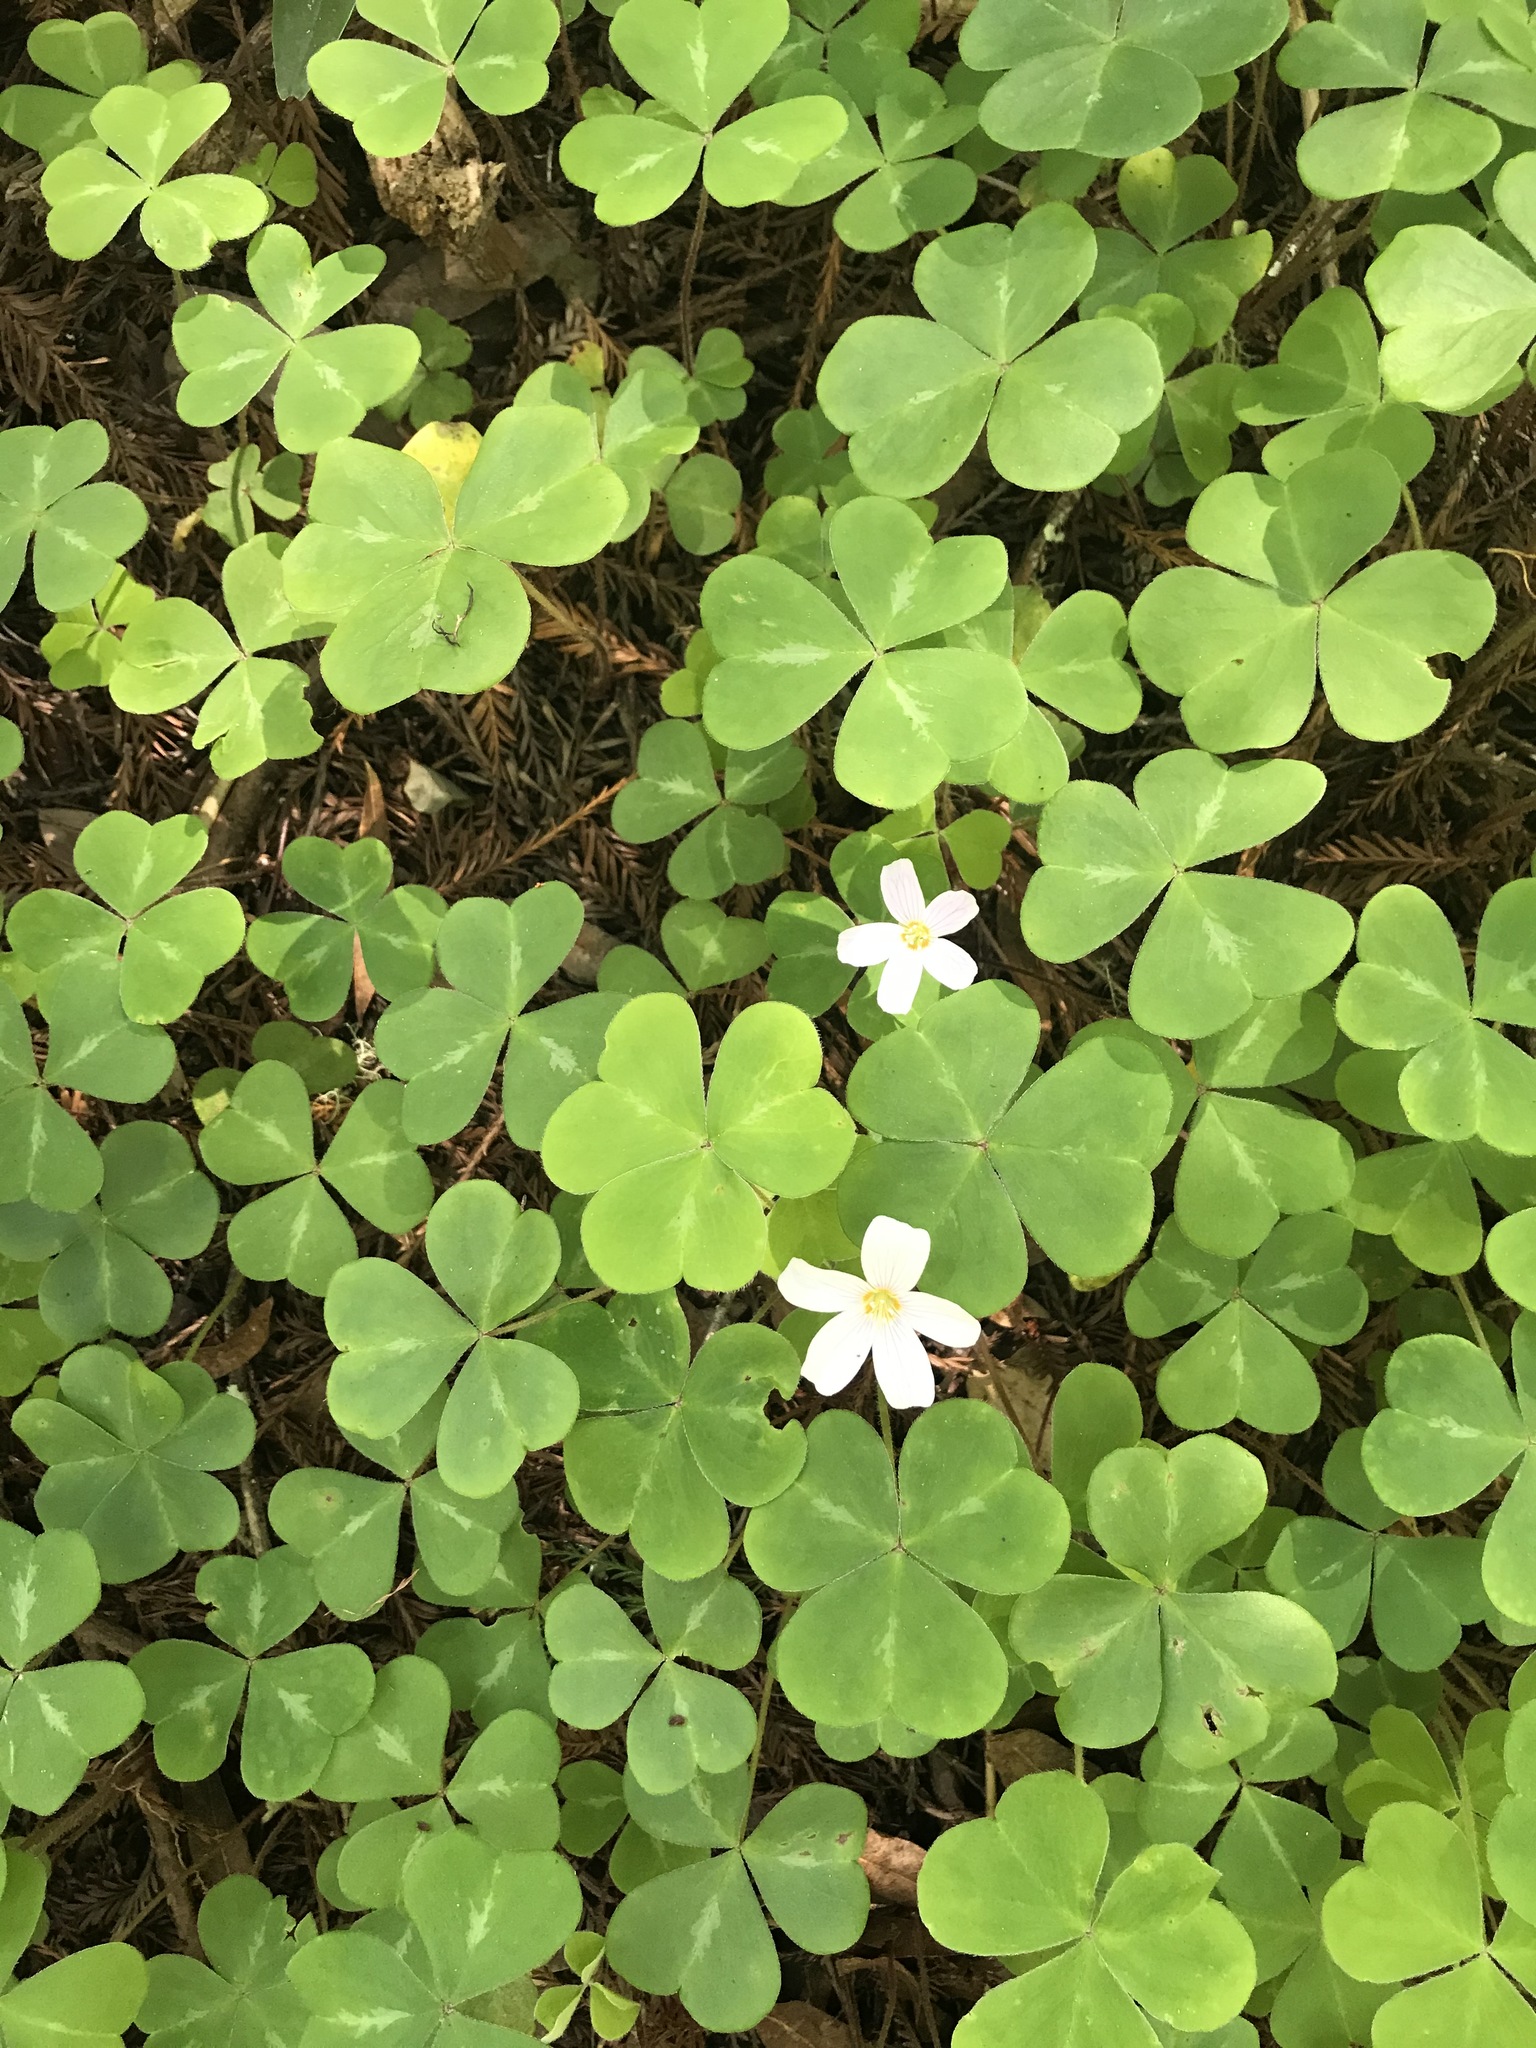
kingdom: Plantae
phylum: Tracheophyta
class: Magnoliopsida
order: Oxalidales
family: Oxalidaceae
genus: Oxalis
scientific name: Oxalis oregana
